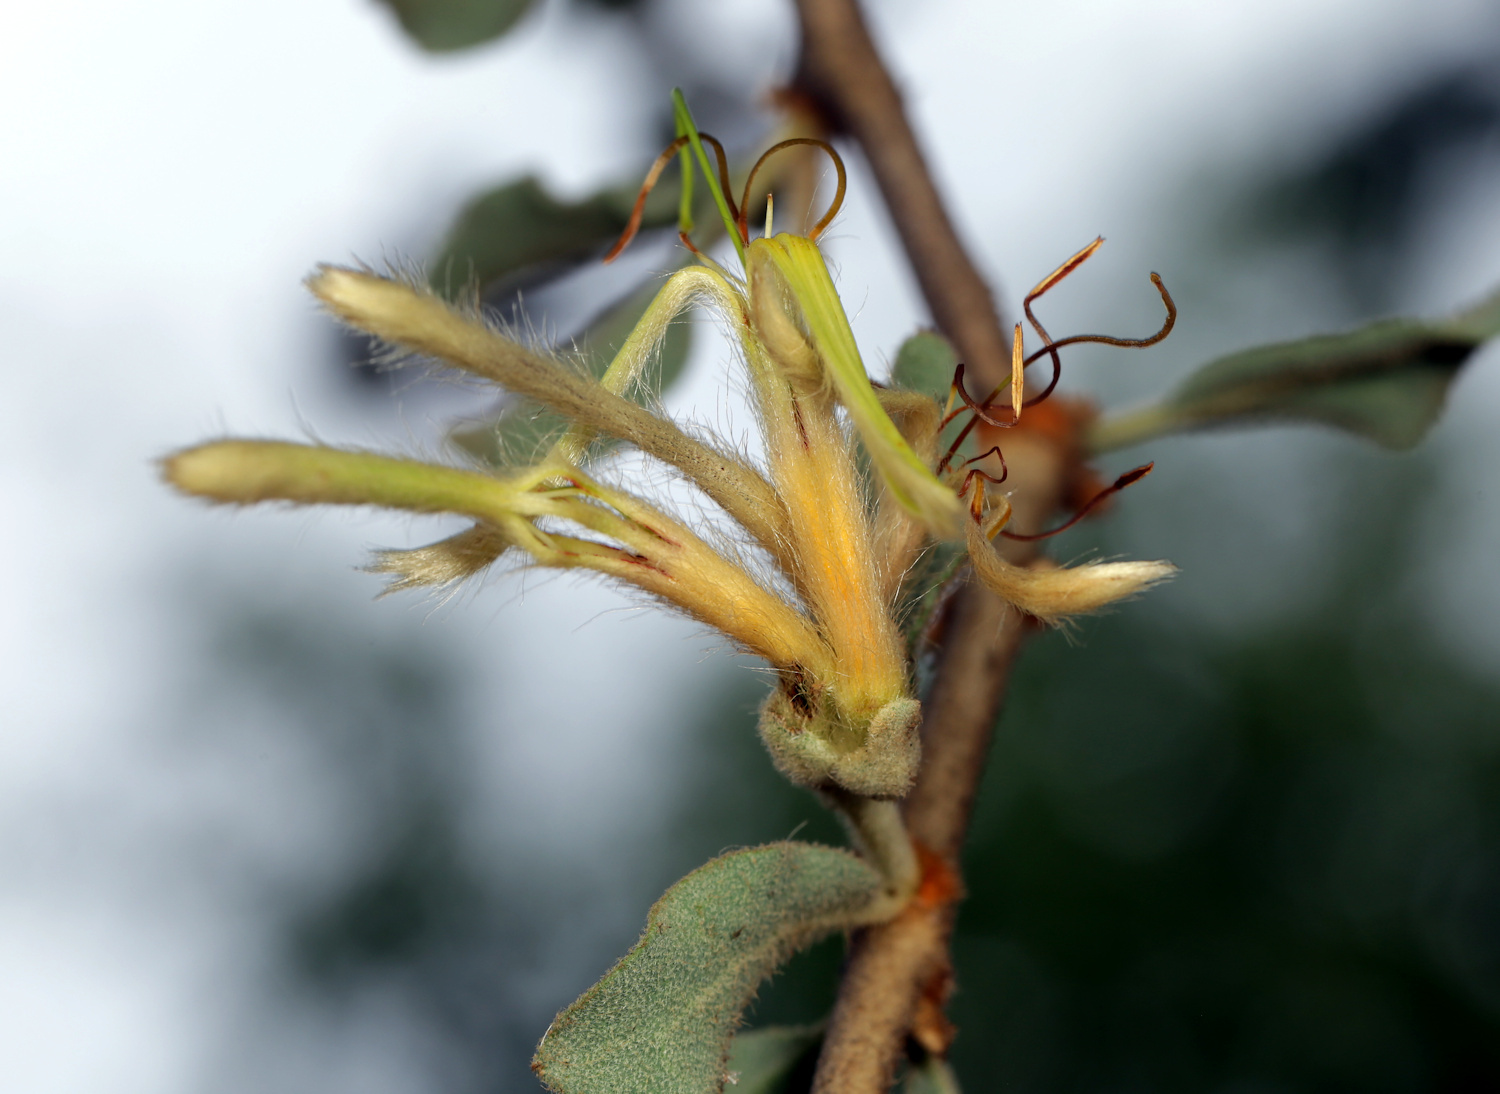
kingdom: Plantae
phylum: Tracheophyta
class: Magnoliopsida
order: Santalales
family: Loranthaceae
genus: Erianthemum
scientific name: Erianthemum ngamicum
